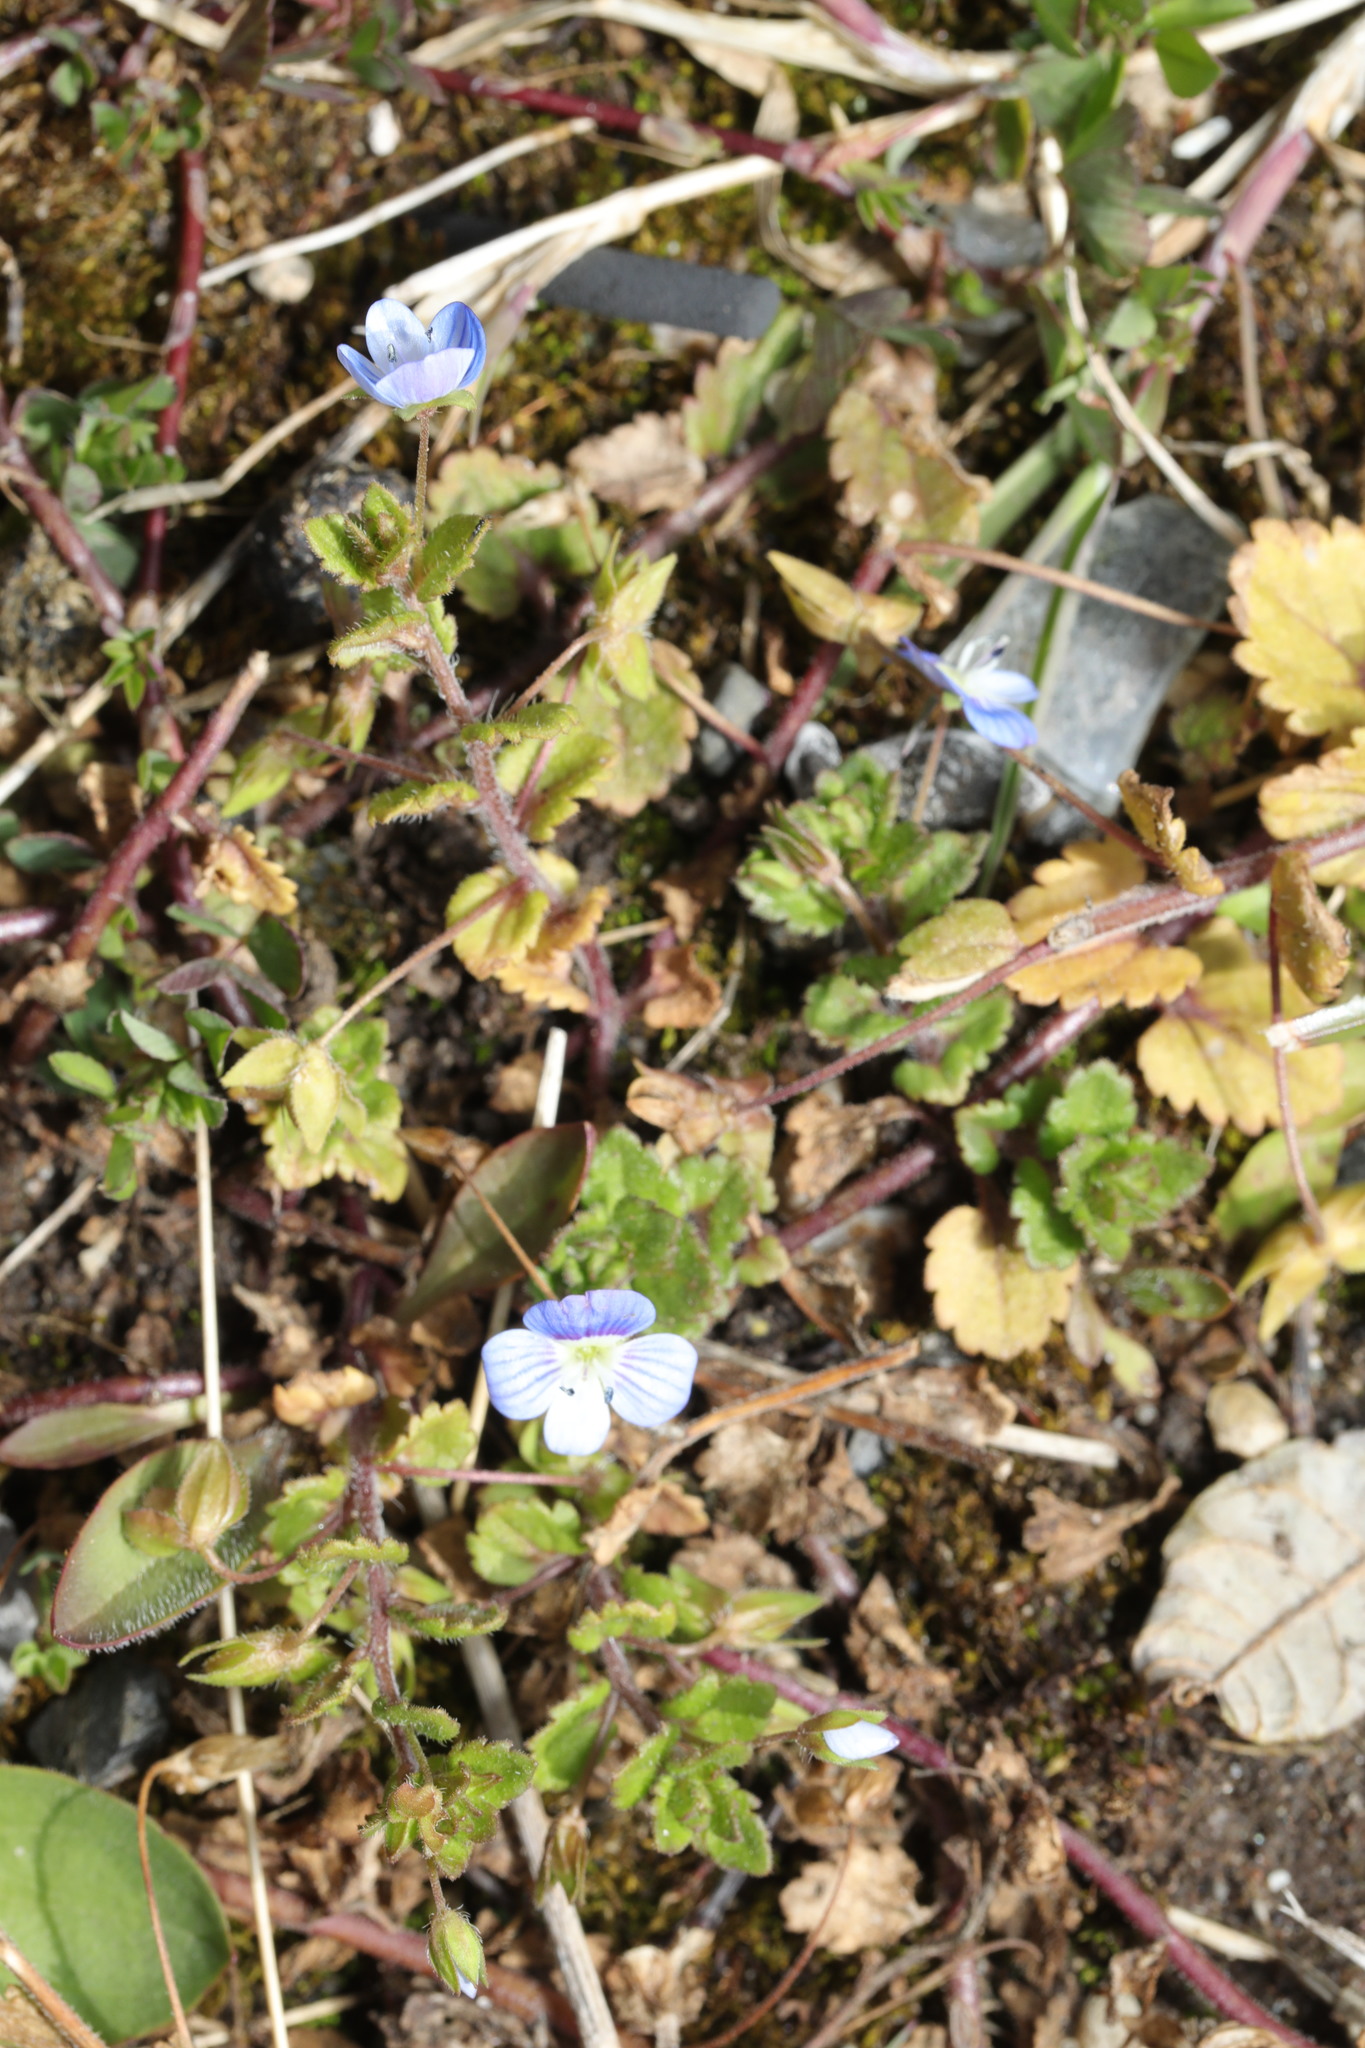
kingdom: Plantae
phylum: Tracheophyta
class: Magnoliopsida
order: Lamiales
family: Plantaginaceae
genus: Veronica
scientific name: Veronica persica
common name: Common field-speedwell
